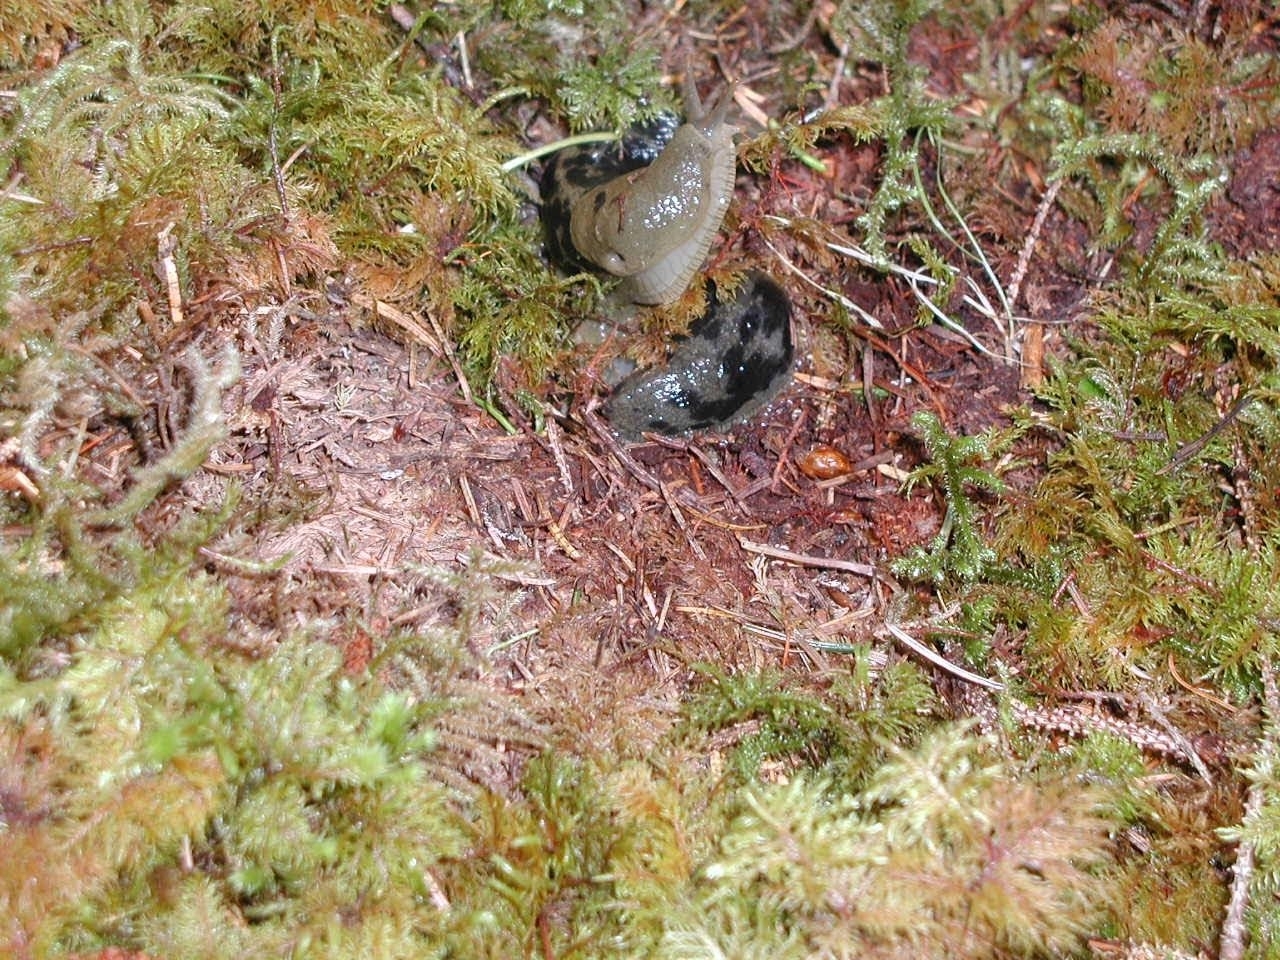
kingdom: Plantae
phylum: Bryophyta
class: Bryopsida
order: Hypnales
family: Hylocomiaceae
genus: Hylocomium
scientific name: Hylocomium splendens
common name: Stairstep moss
